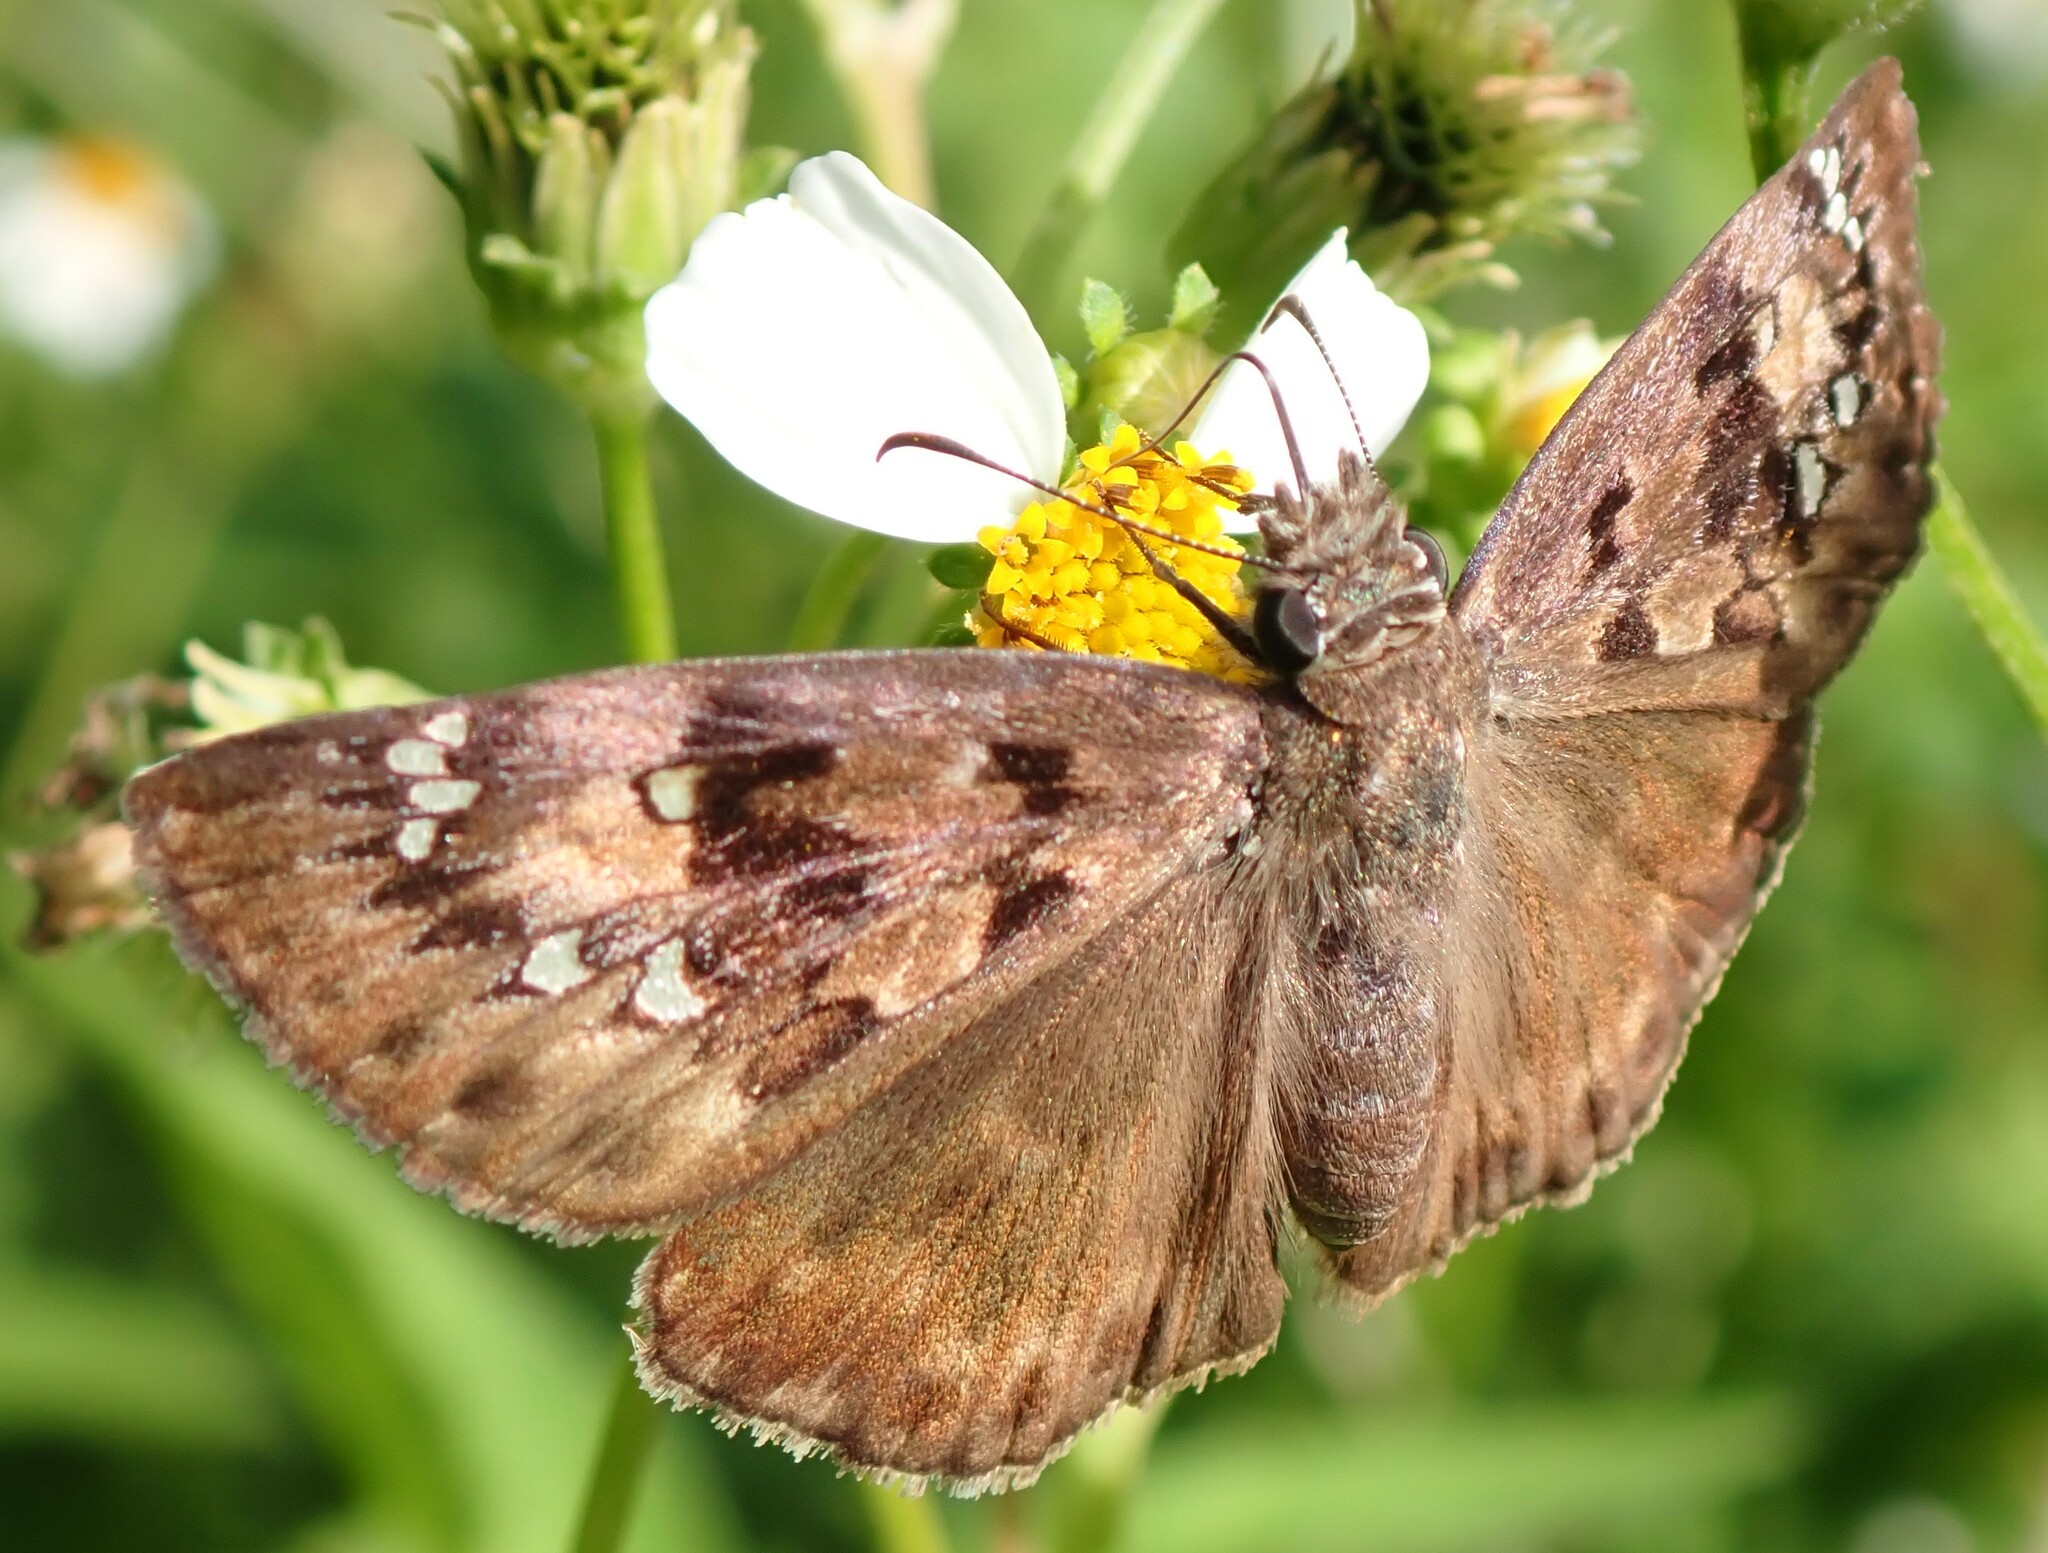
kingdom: Animalia
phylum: Arthropoda
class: Insecta
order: Lepidoptera
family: Hesperiidae
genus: Erynnis
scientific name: Erynnis horatius
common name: Horace's duskywing
